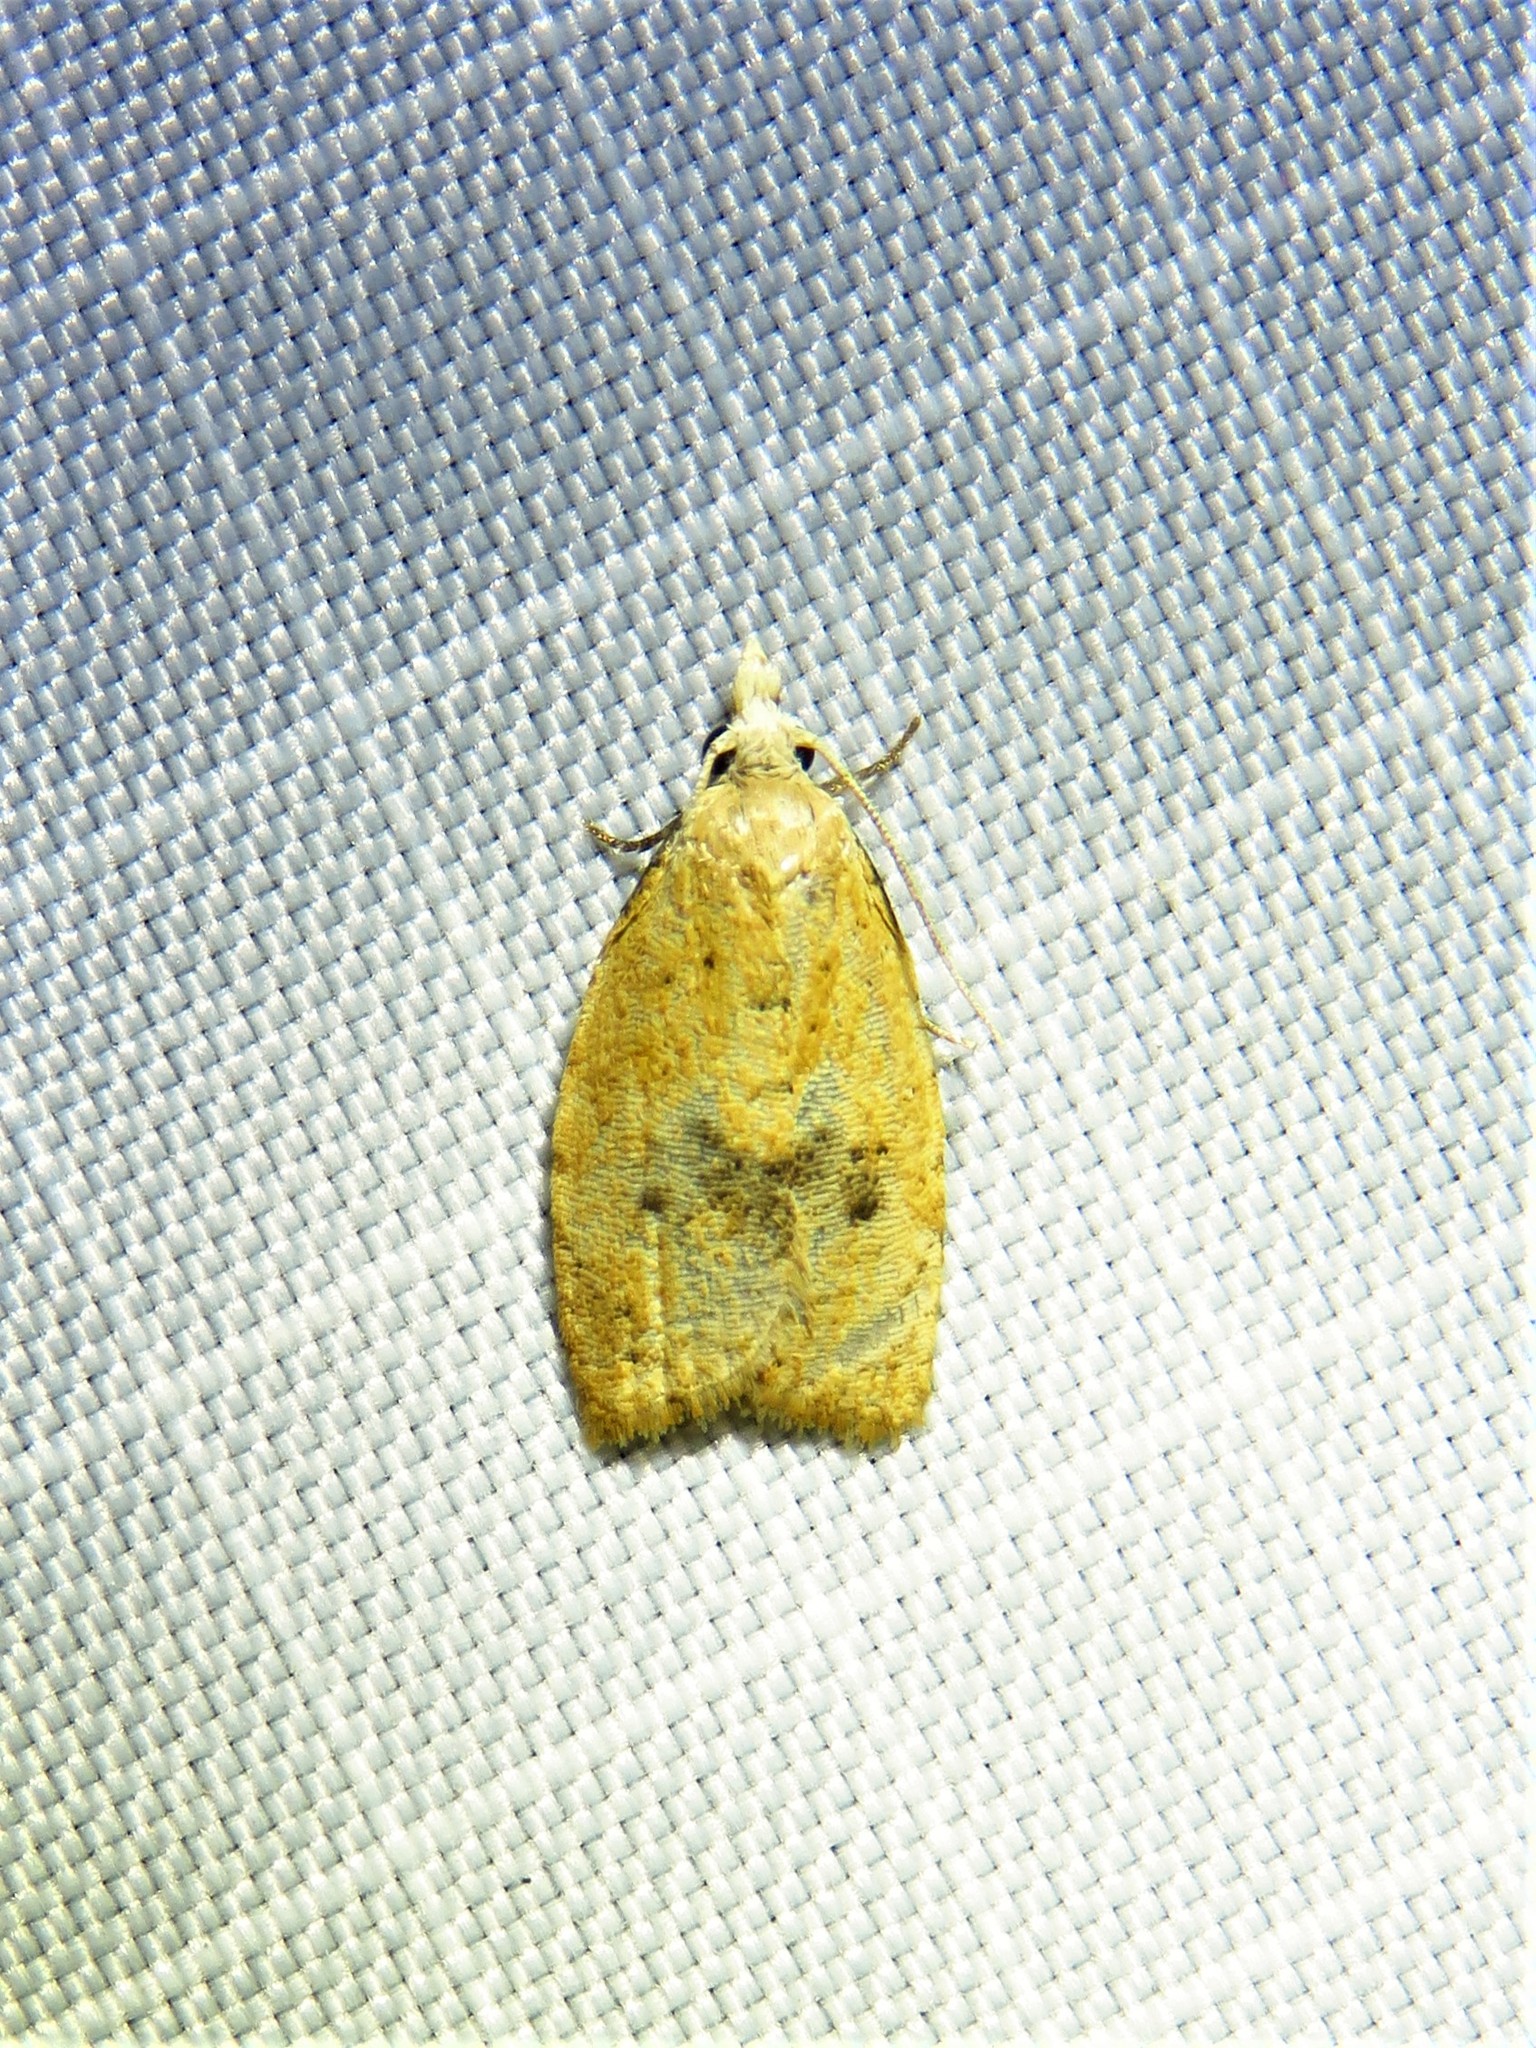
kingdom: Animalia
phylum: Arthropoda
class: Insecta
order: Lepidoptera
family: Tortricidae
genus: Sparganothoides
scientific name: Sparganothoides lentiginosana
